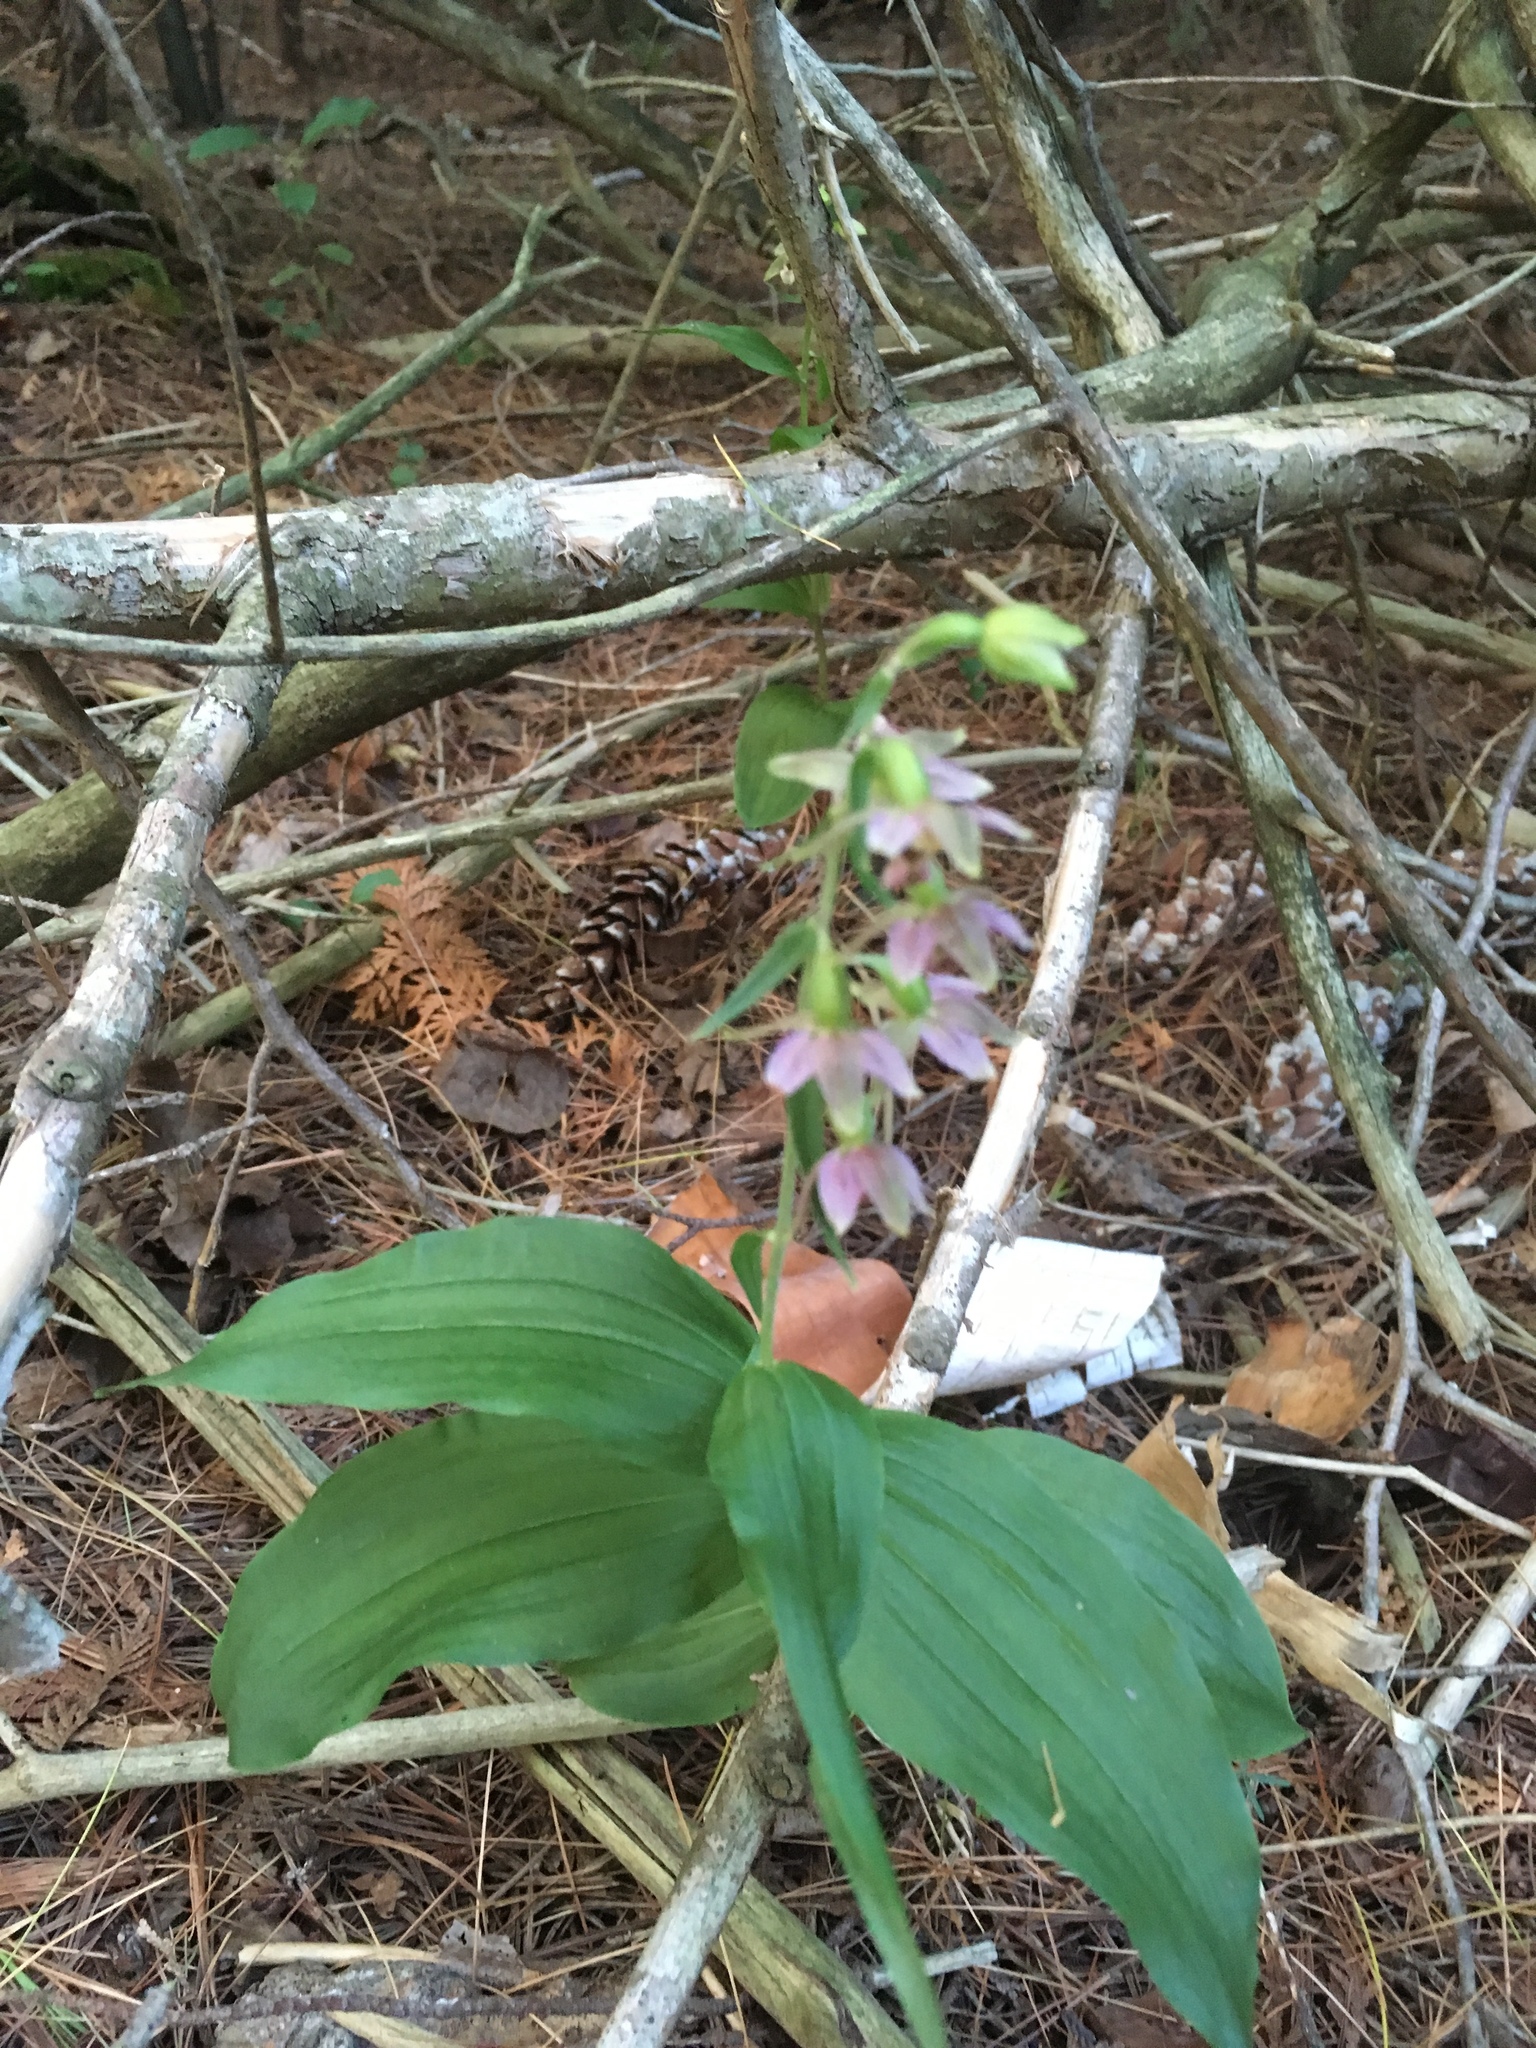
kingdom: Plantae
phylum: Tracheophyta
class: Liliopsida
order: Asparagales
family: Orchidaceae
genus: Epipactis
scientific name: Epipactis helleborine
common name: Broad-leaved helleborine
